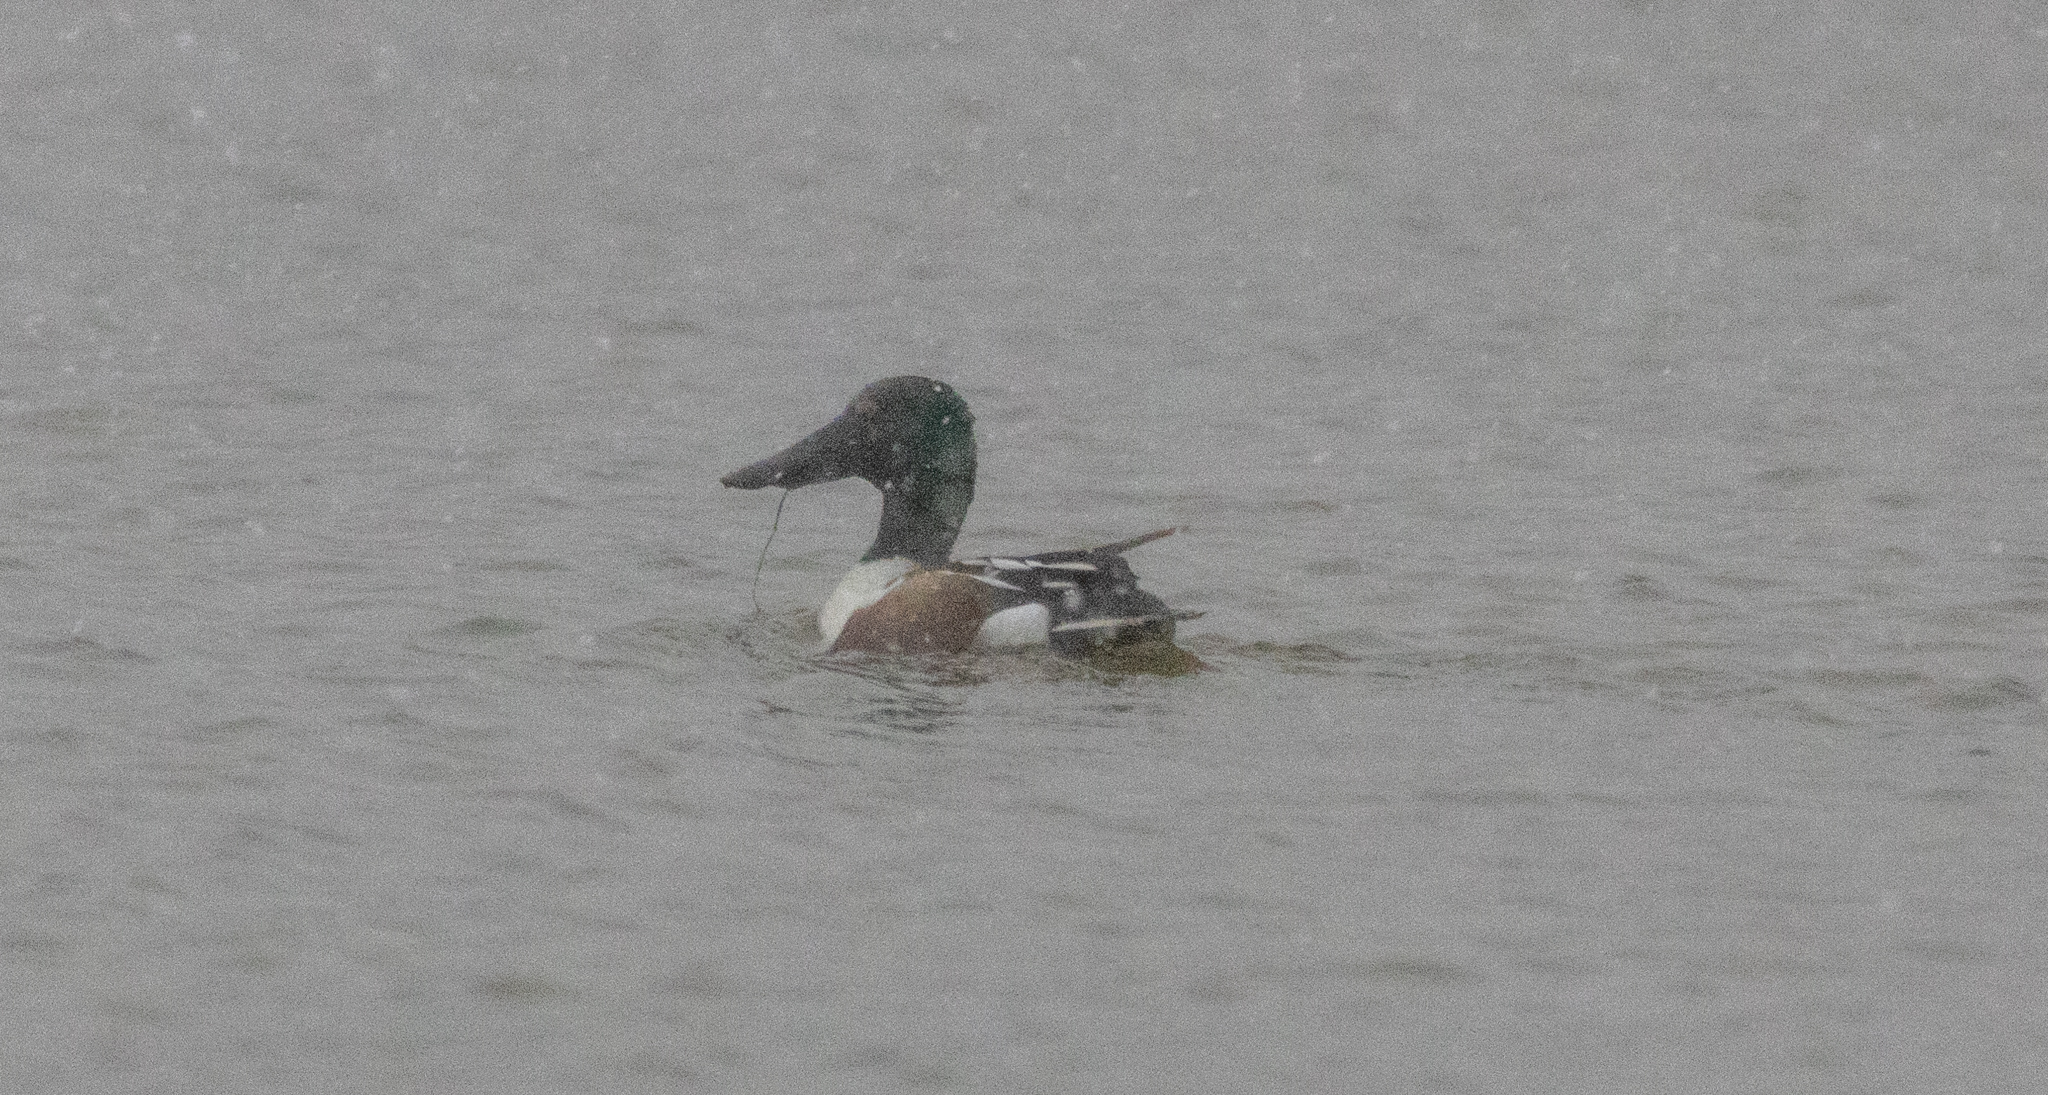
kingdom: Animalia
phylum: Chordata
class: Aves
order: Anseriformes
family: Anatidae
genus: Spatula
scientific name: Spatula clypeata
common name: Northern shoveler
